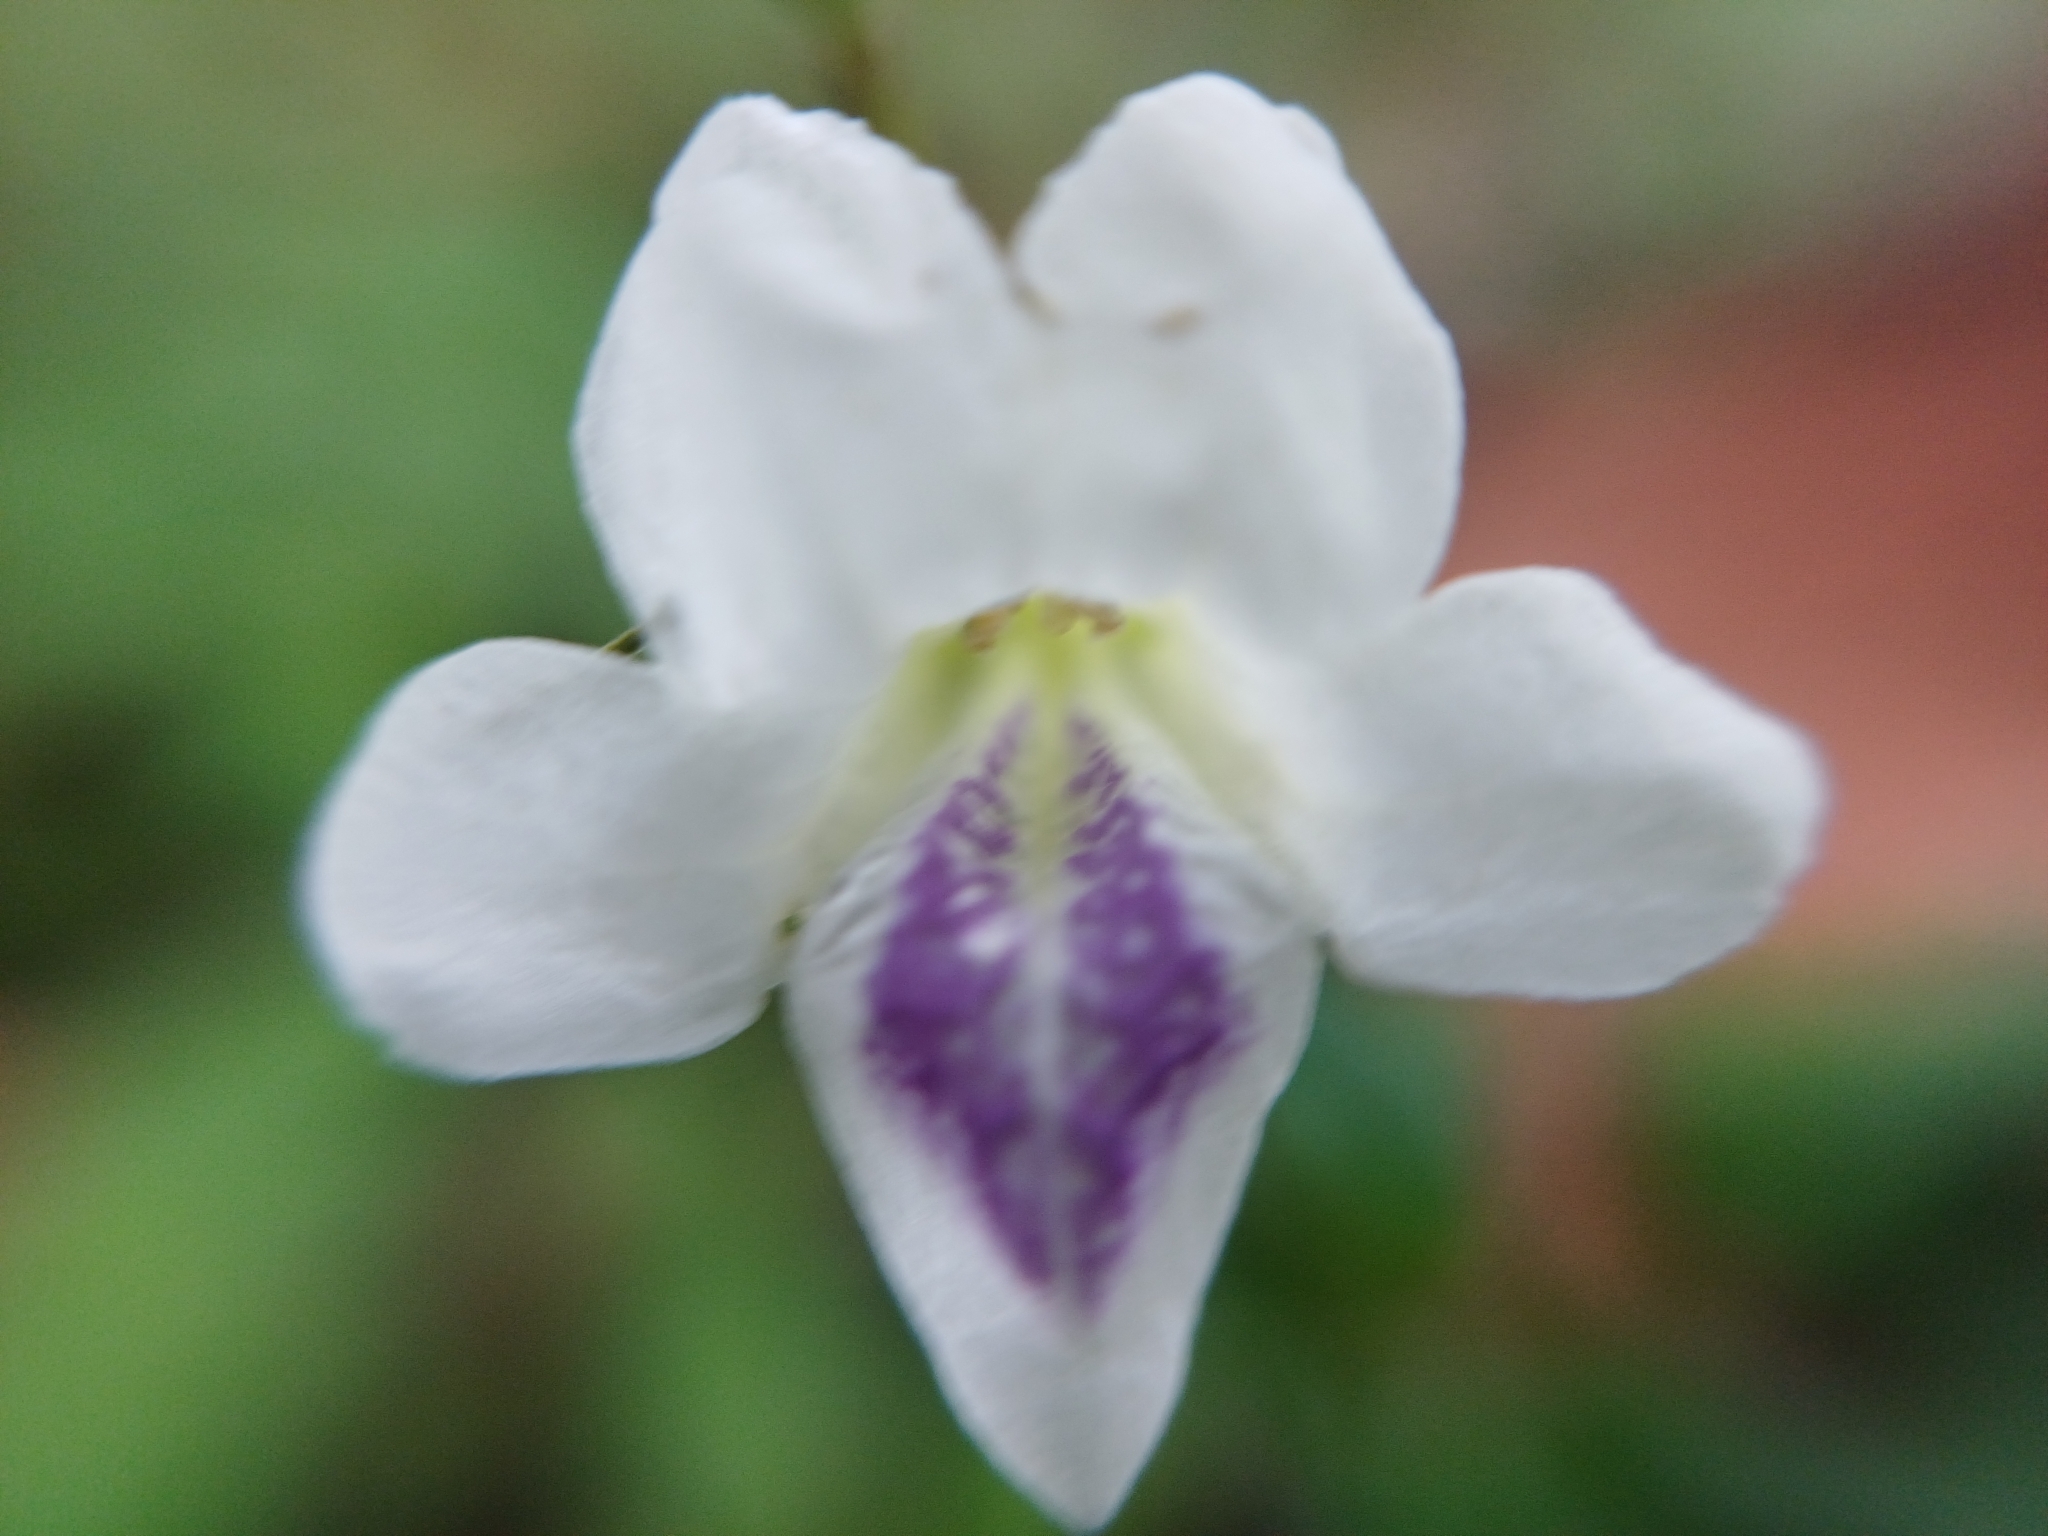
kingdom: Plantae
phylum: Tracheophyta
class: Magnoliopsida
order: Lamiales
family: Acanthaceae
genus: Asystasia
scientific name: Asystasia intrusa
